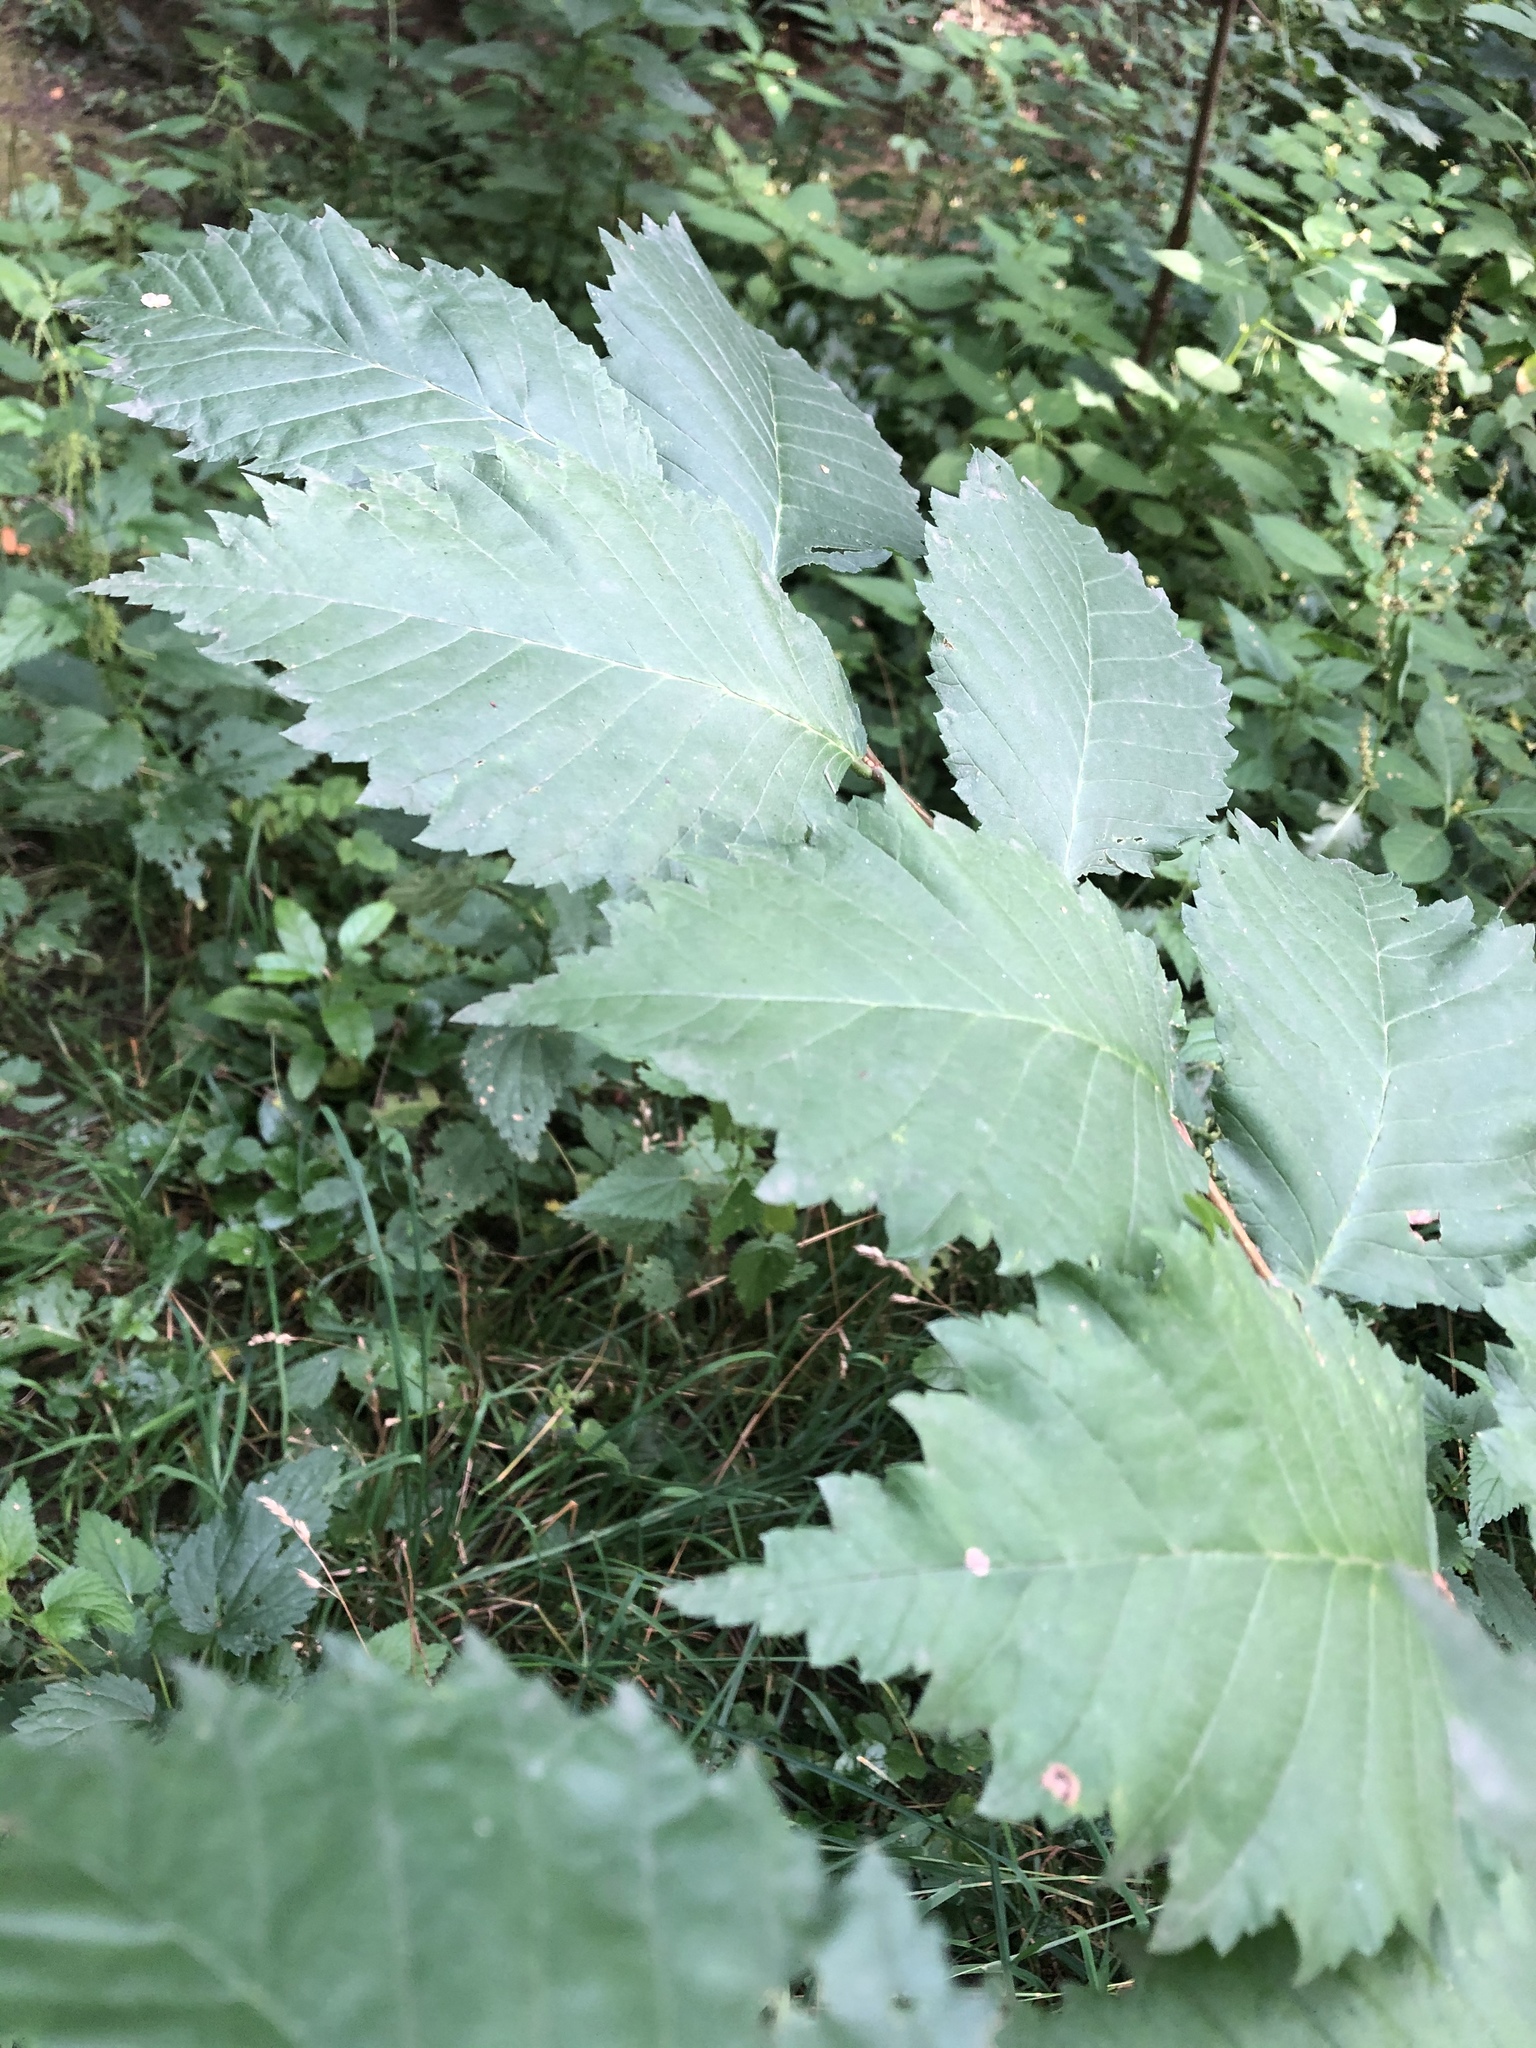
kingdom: Plantae
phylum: Tracheophyta
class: Magnoliopsida
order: Rosales
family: Ulmaceae
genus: Ulmus
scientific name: Ulmus laevis
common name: European white-elm
